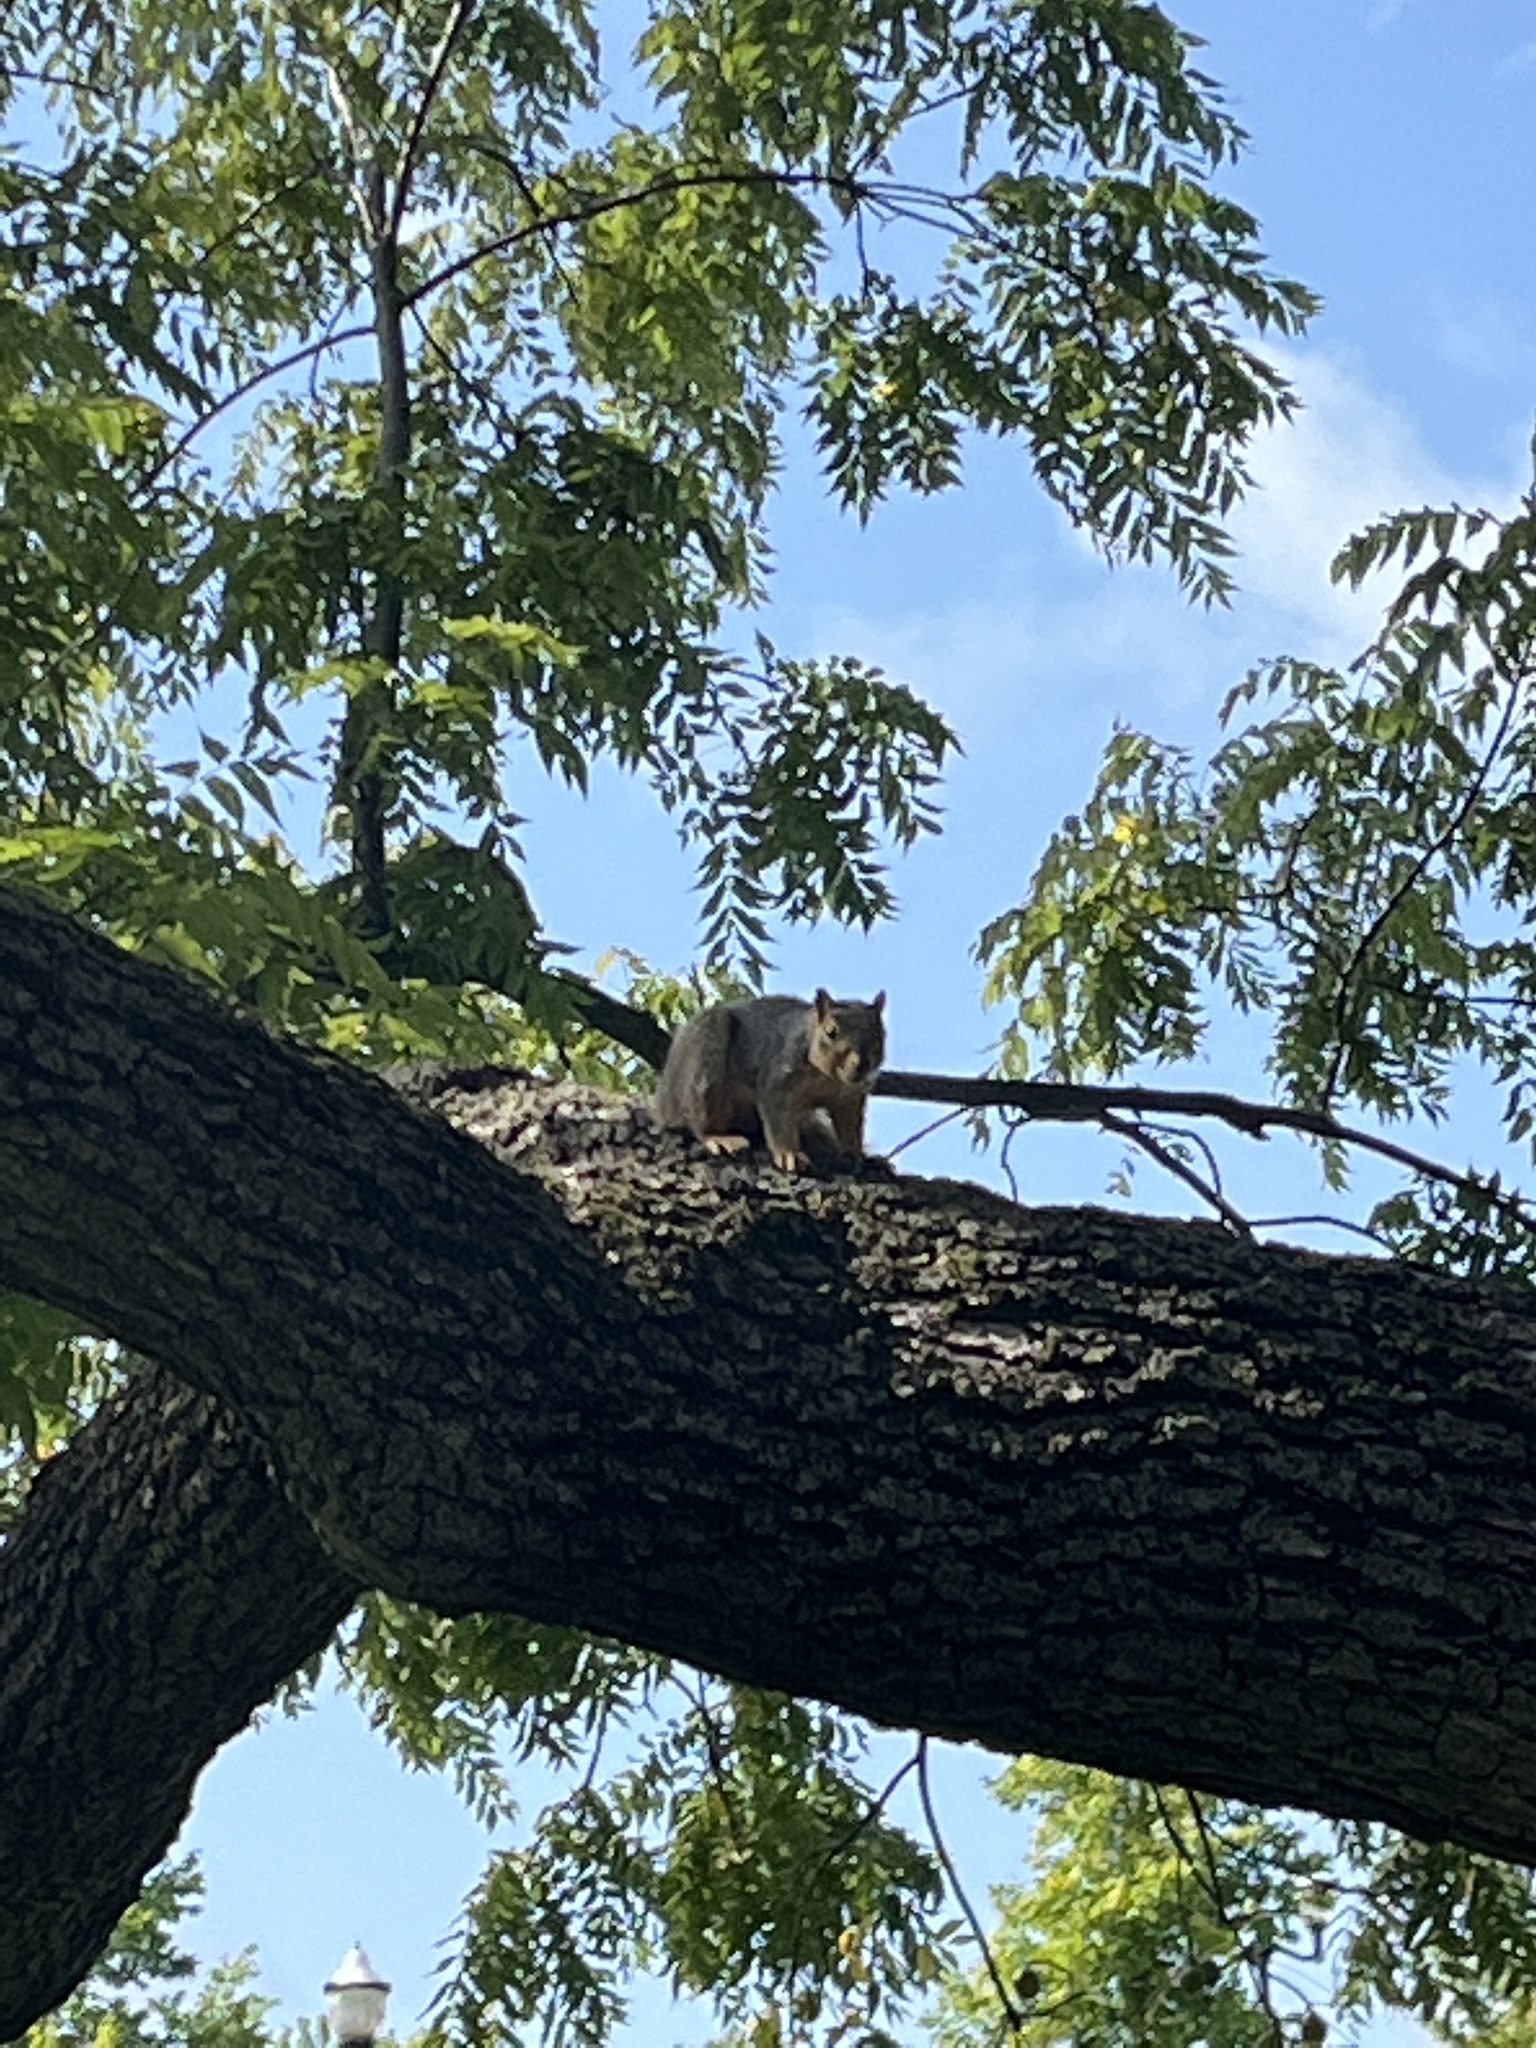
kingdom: Animalia
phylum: Chordata
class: Mammalia
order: Rodentia
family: Sciuridae
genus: Sciurus
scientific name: Sciurus niger
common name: Fox squirrel
